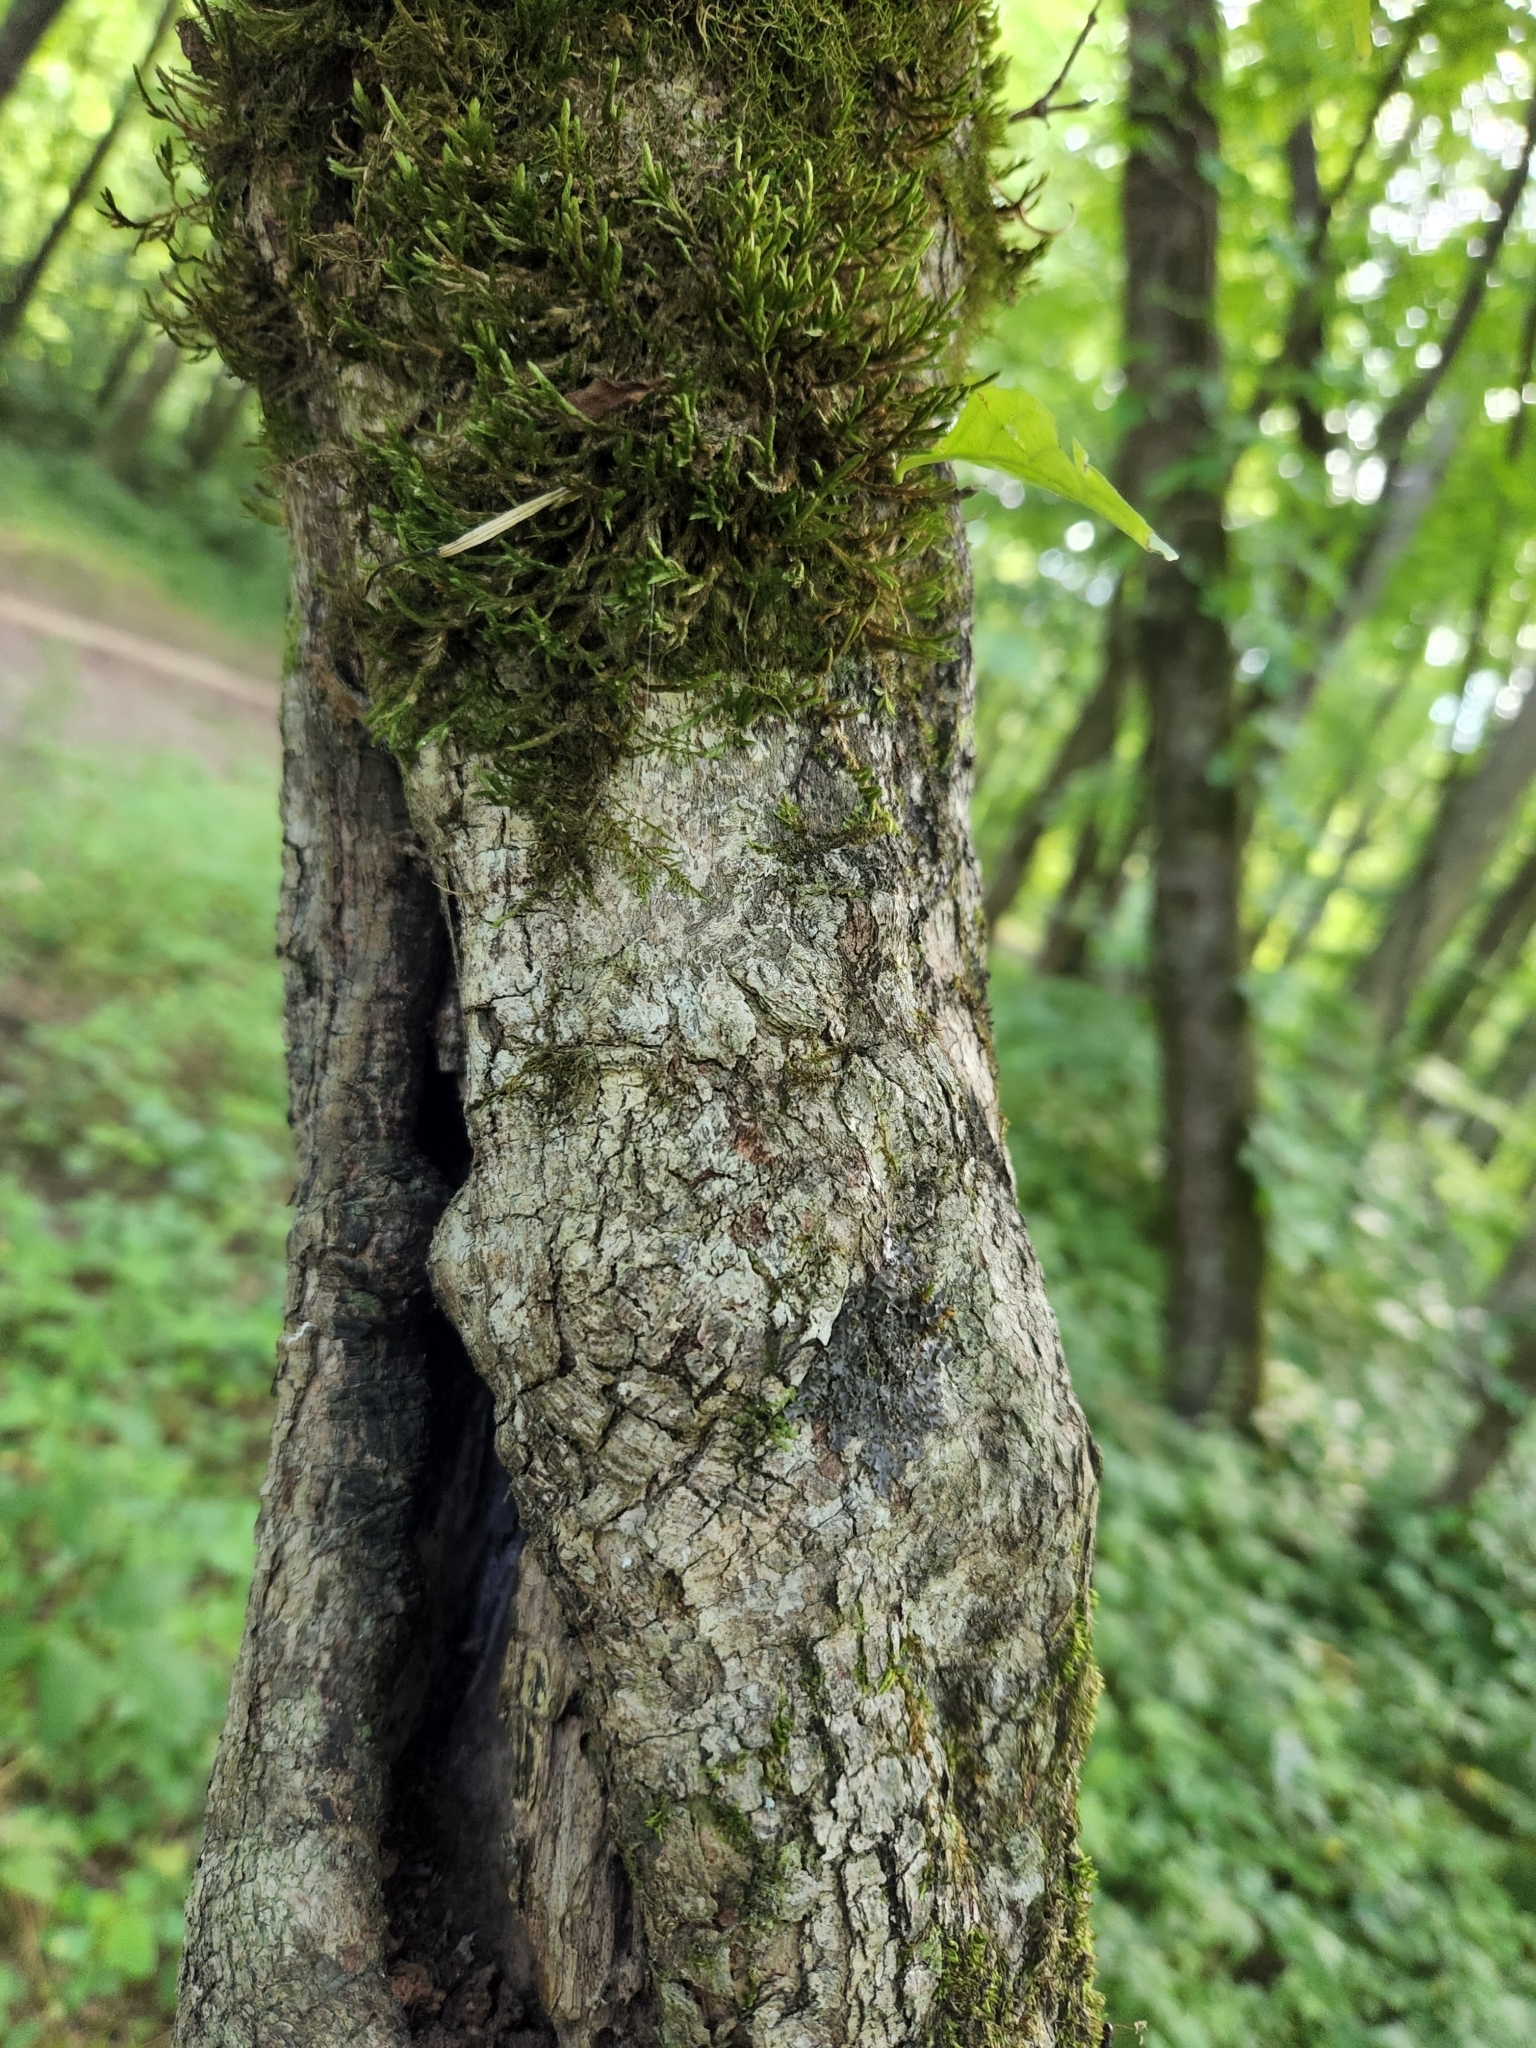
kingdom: Plantae
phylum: Tracheophyta
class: Magnoliopsida
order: Cornales
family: Cornaceae
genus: Cornus
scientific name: Cornus florida
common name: Flowering dogwood
